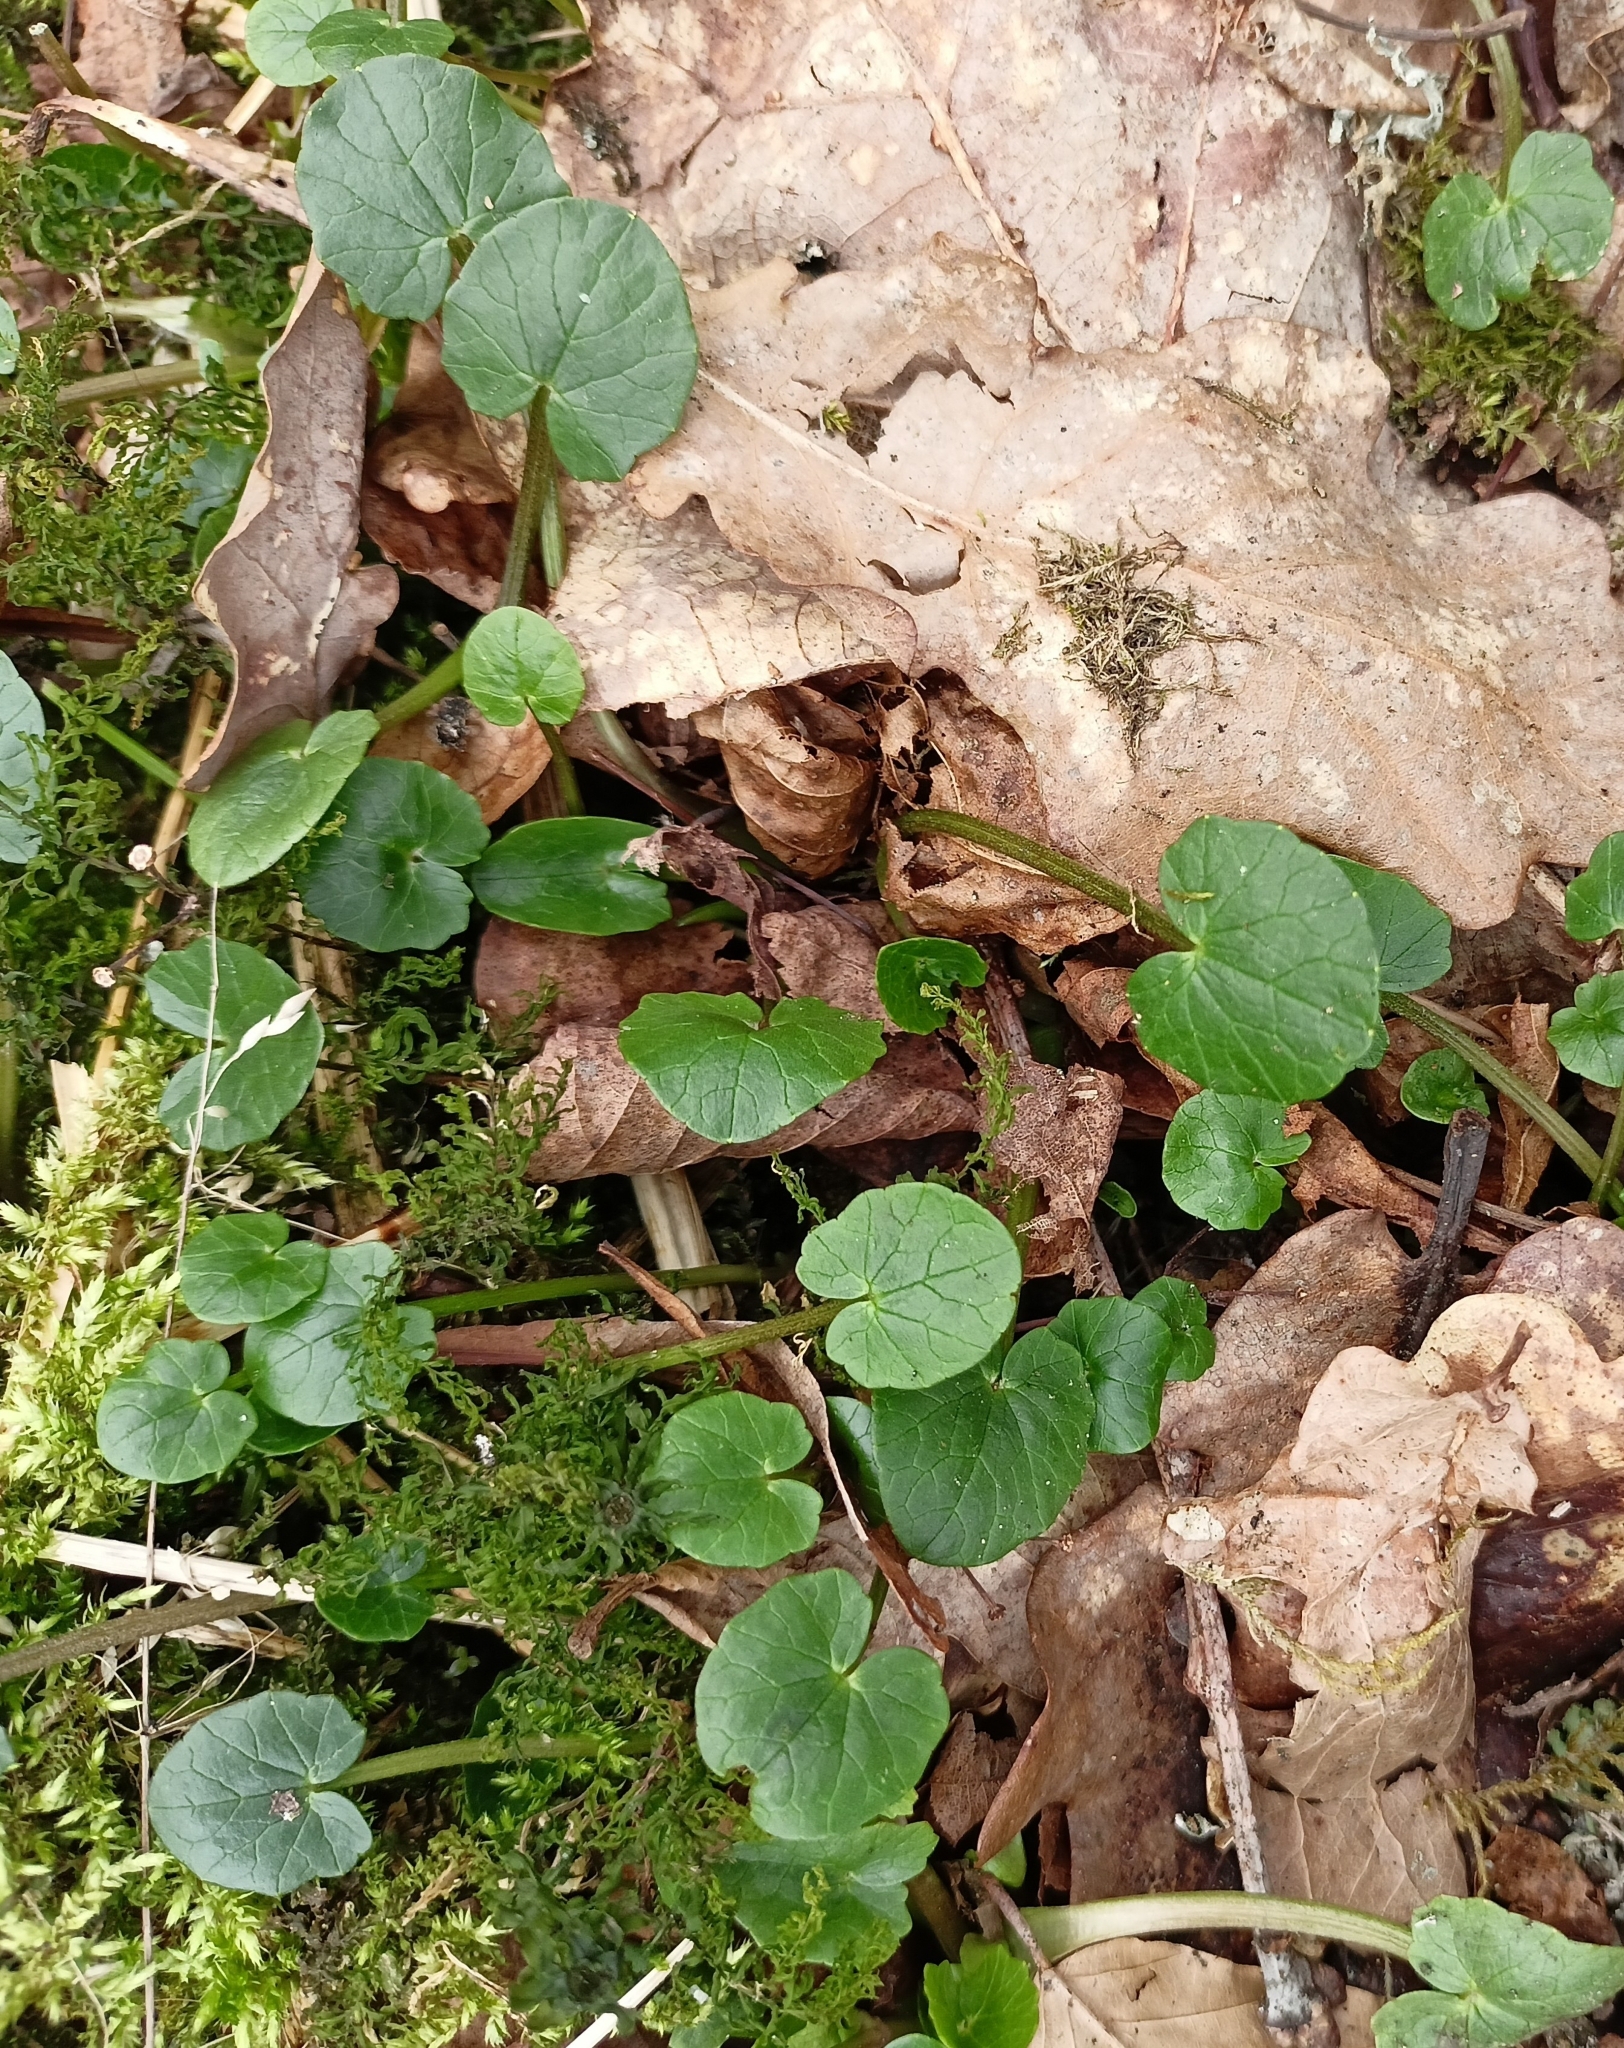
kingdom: Plantae
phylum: Tracheophyta
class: Magnoliopsida
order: Ranunculales
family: Ranunculaceae
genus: Ficaria
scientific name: Ficaria verna
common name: Lesser celandine
